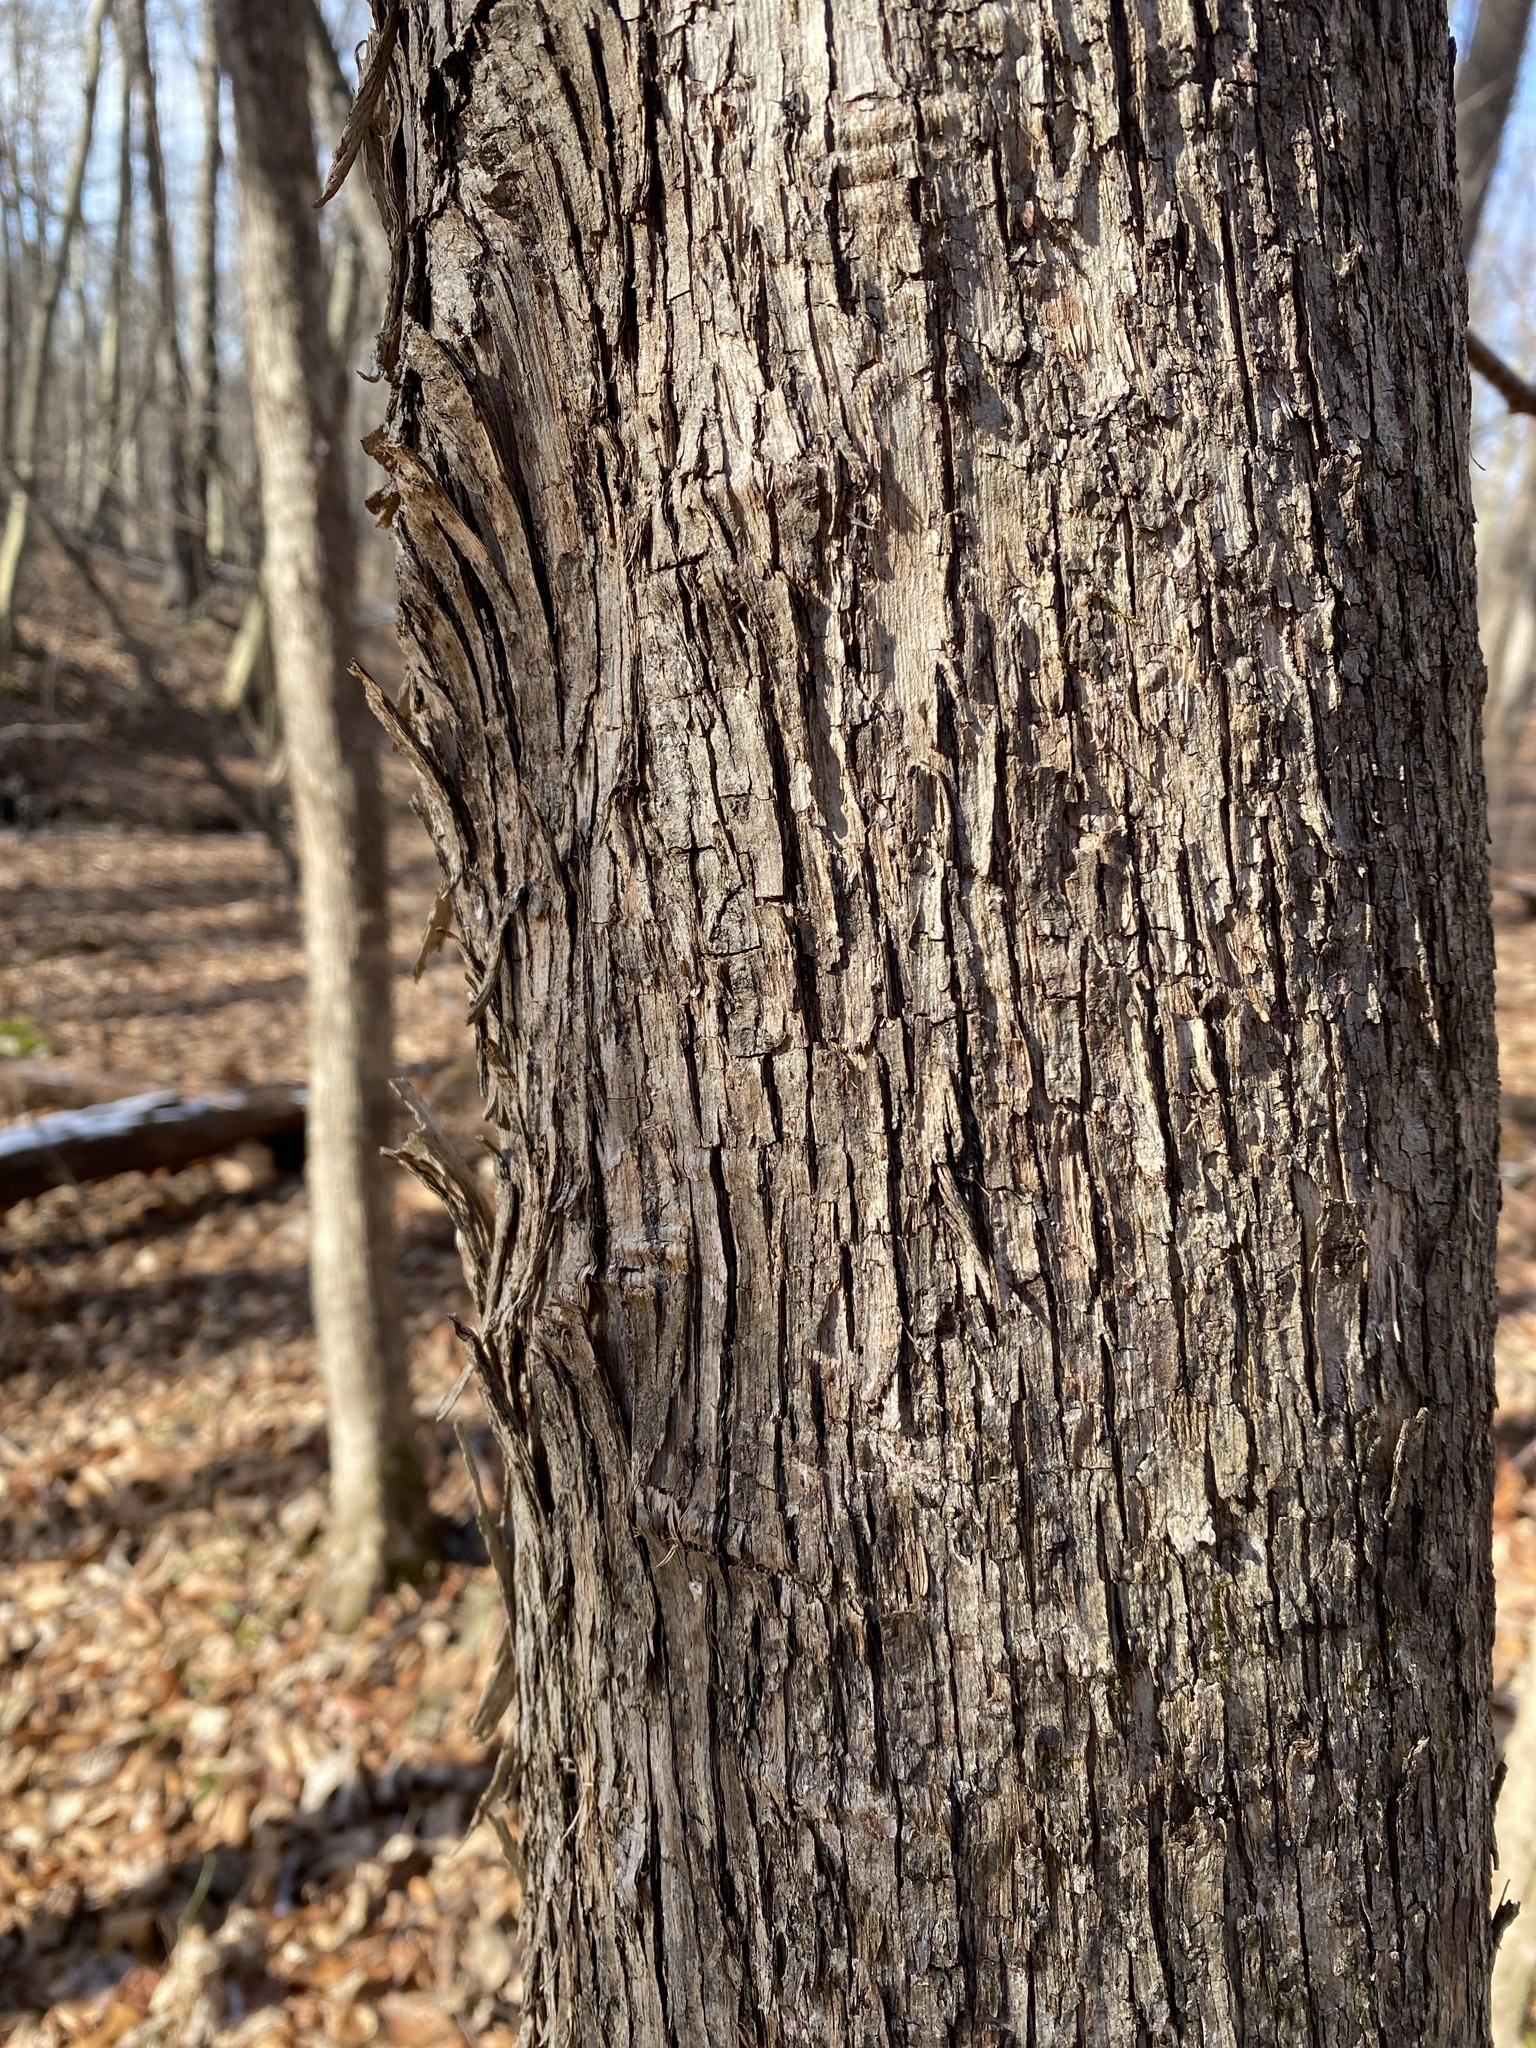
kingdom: Plantae
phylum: Tracheophyta
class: Magnoliopsida
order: Fagales
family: Betulaceae
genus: Ostrya
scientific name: Ostrya virginiana
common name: Ironwood
